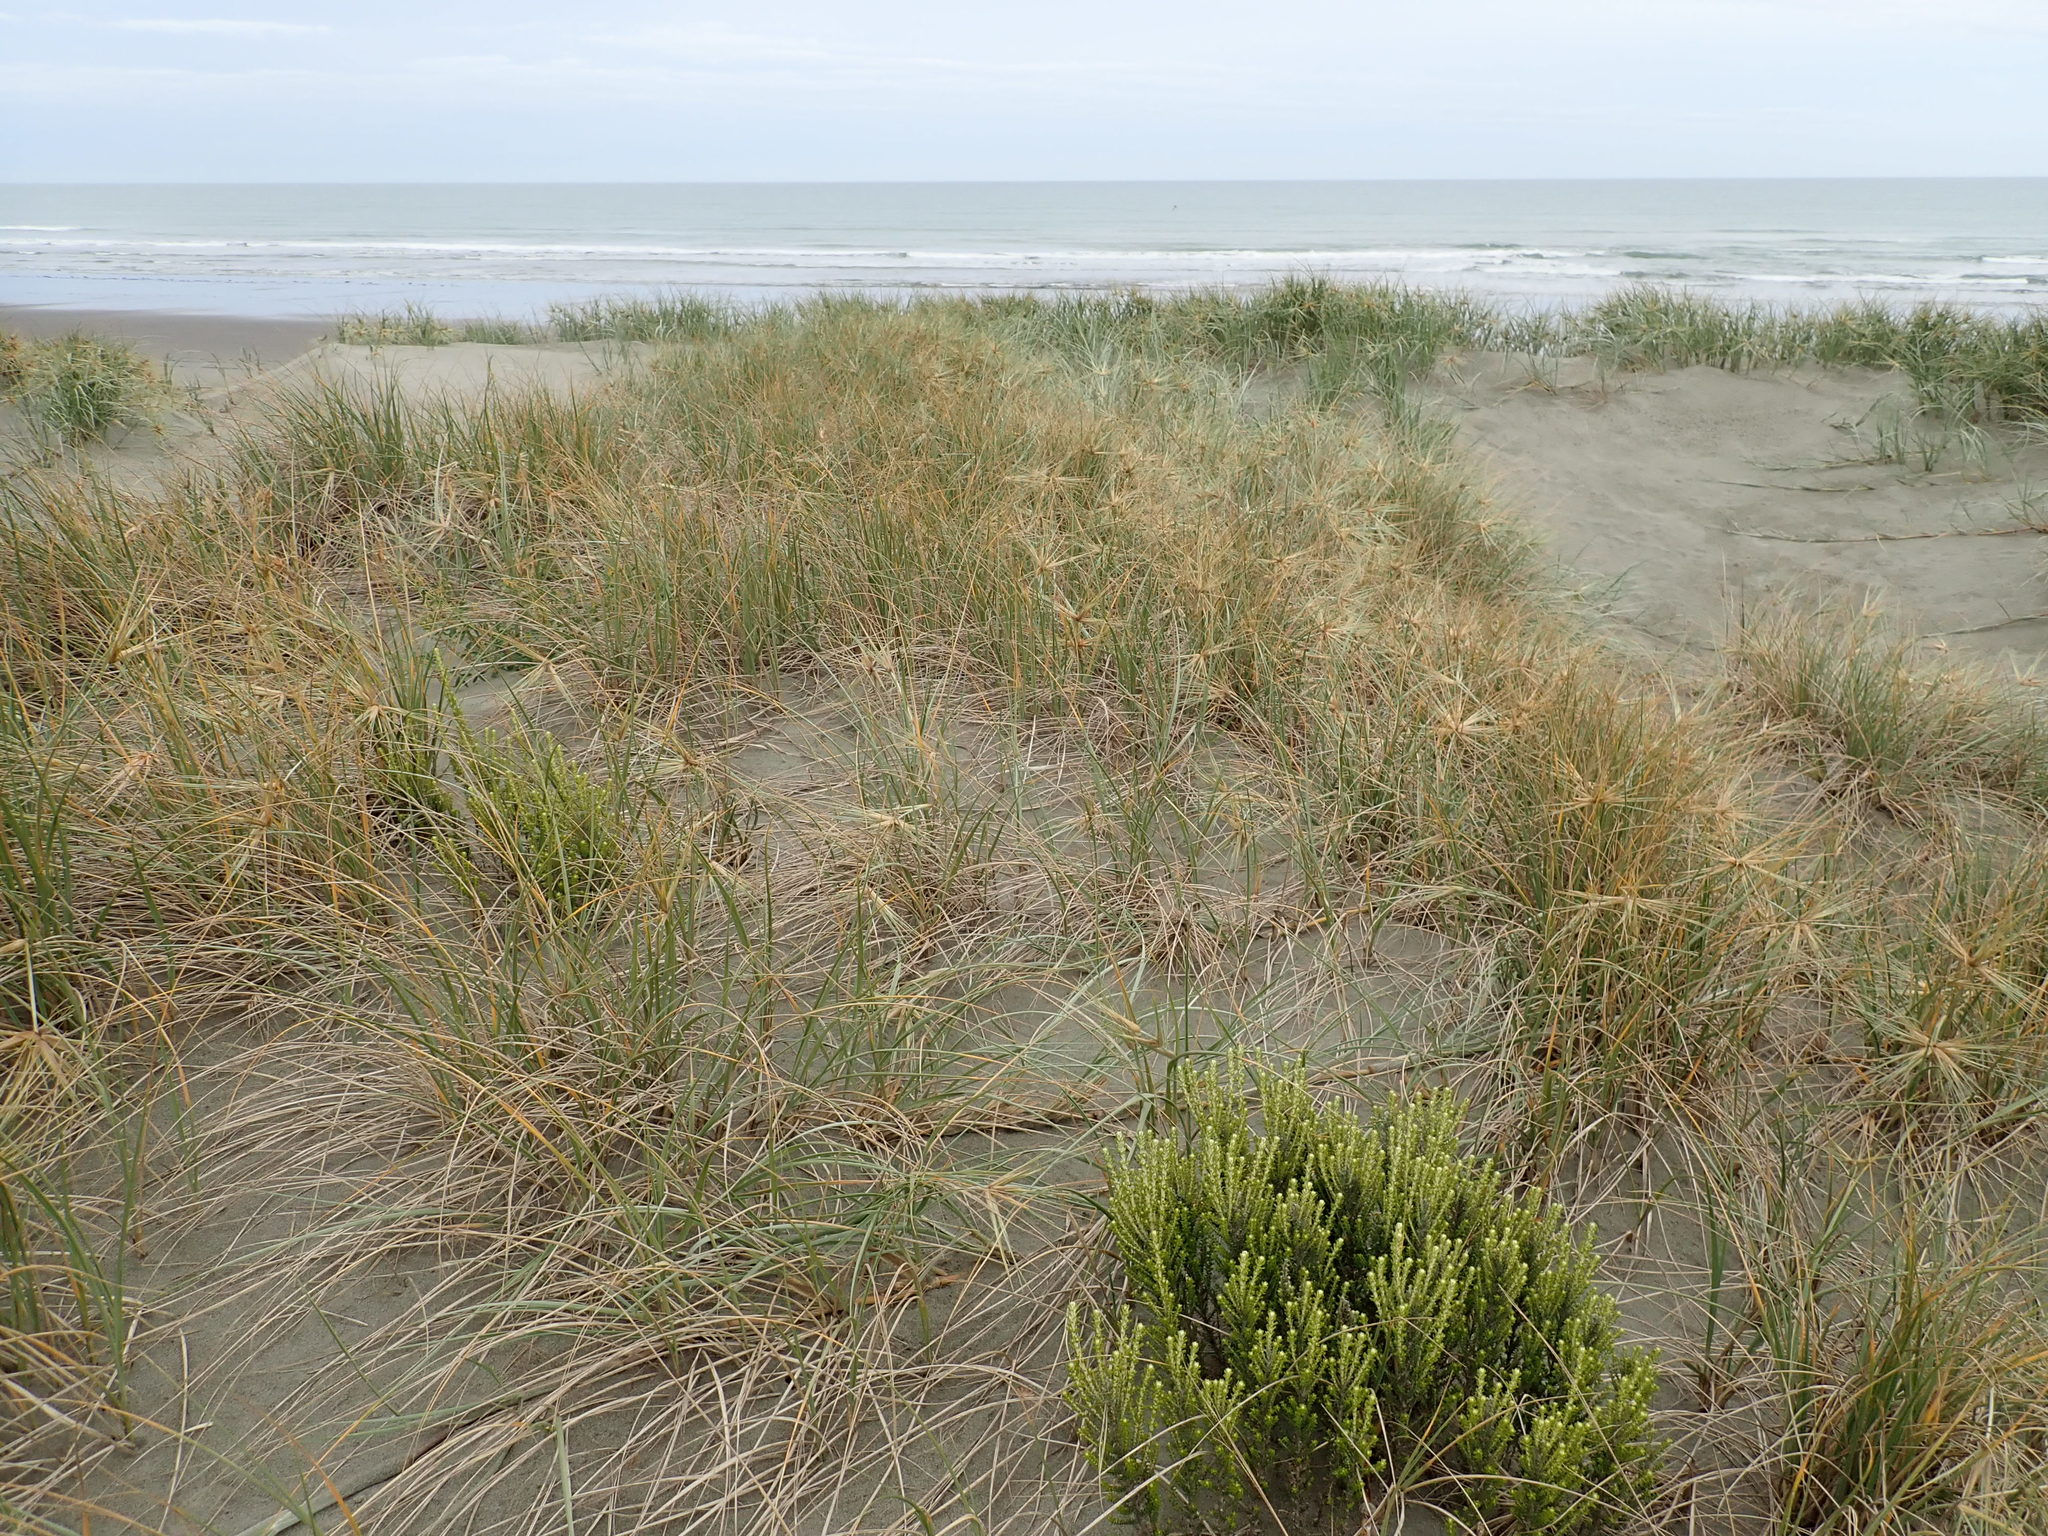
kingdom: Plantae
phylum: Tracheophyta
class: Magnoliopsida
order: Asterales
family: Asteraceae
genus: Ozothamnus
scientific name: Ozothamnus leptophyllus
